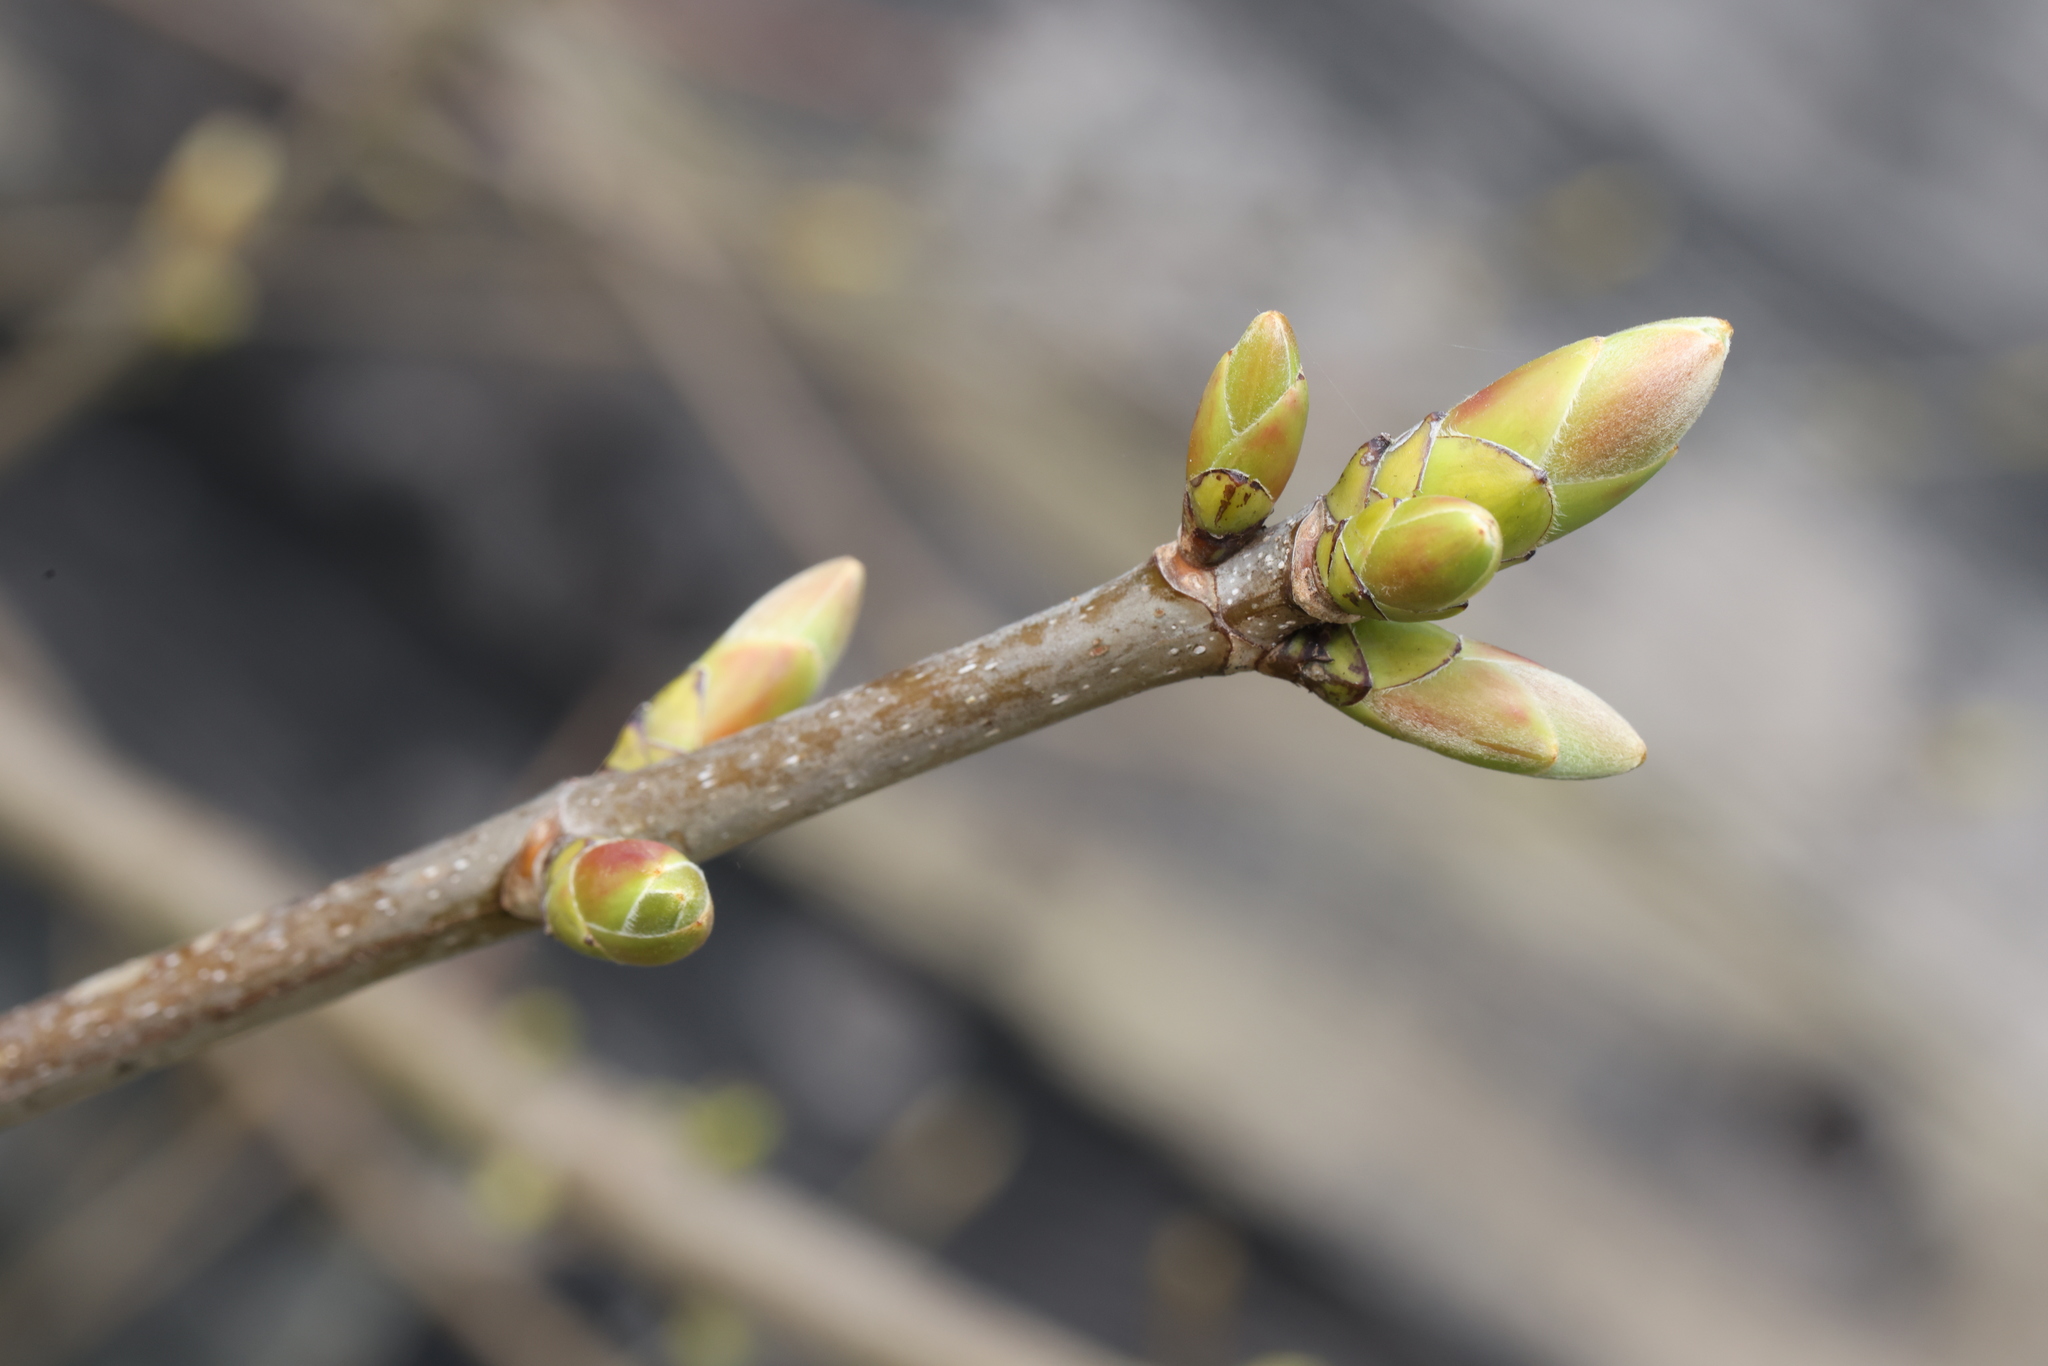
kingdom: Plantae
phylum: Tracheophyta
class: Magnoliopsida
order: Sapindales
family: Sapindaceae
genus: Acer
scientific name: Acer pseudoplatanus
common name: Sycamore
